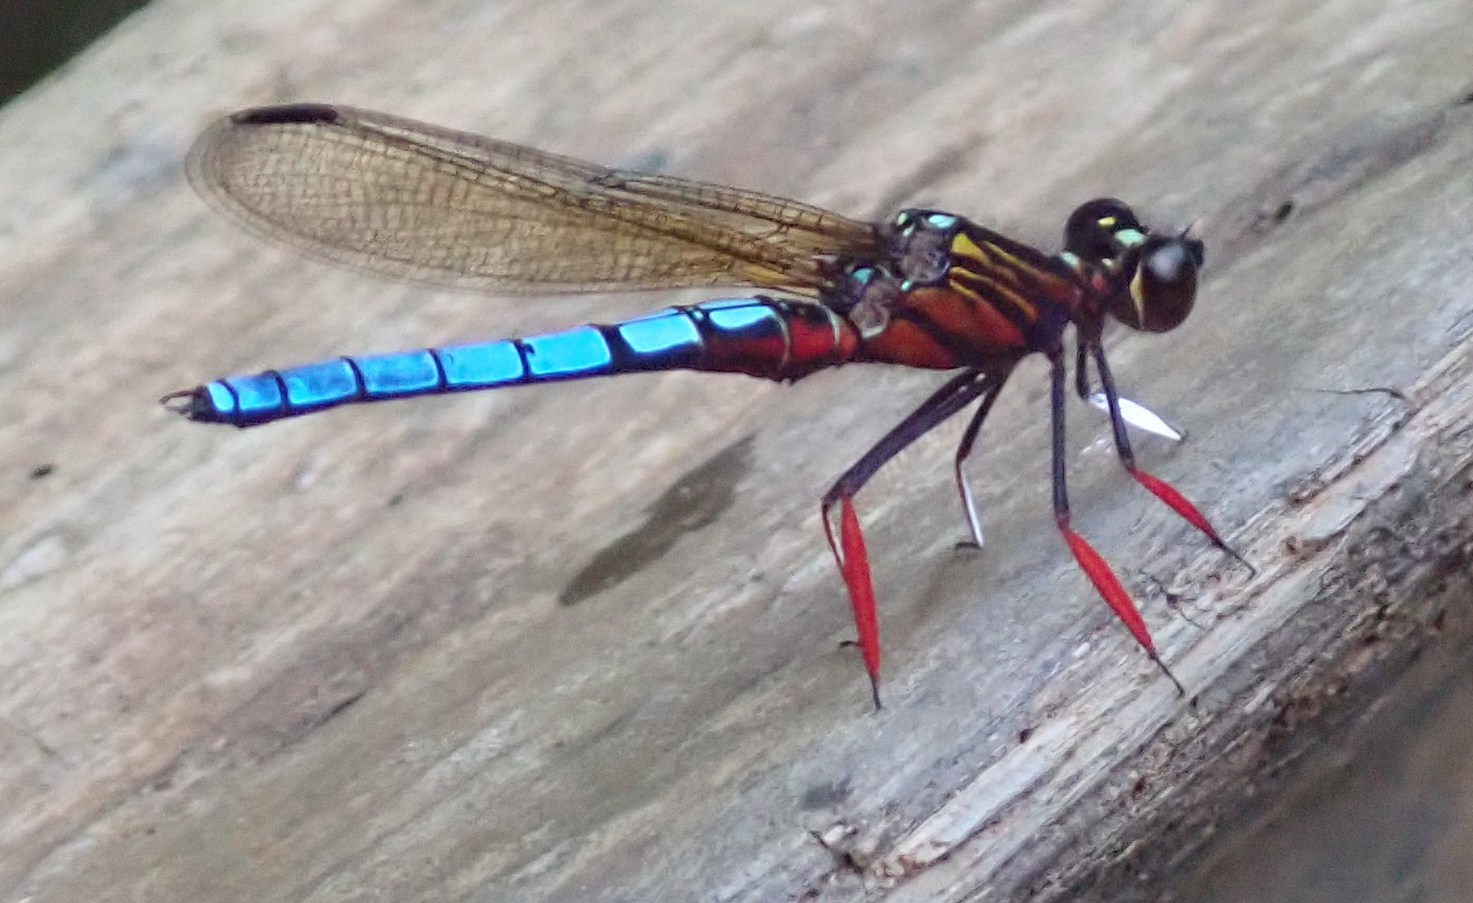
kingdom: Animalia
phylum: Arthropoda
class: Insecta
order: Odonata
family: Chlorocyphidae
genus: Platycypha
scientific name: Platycypha caligata
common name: Dancing jewel
